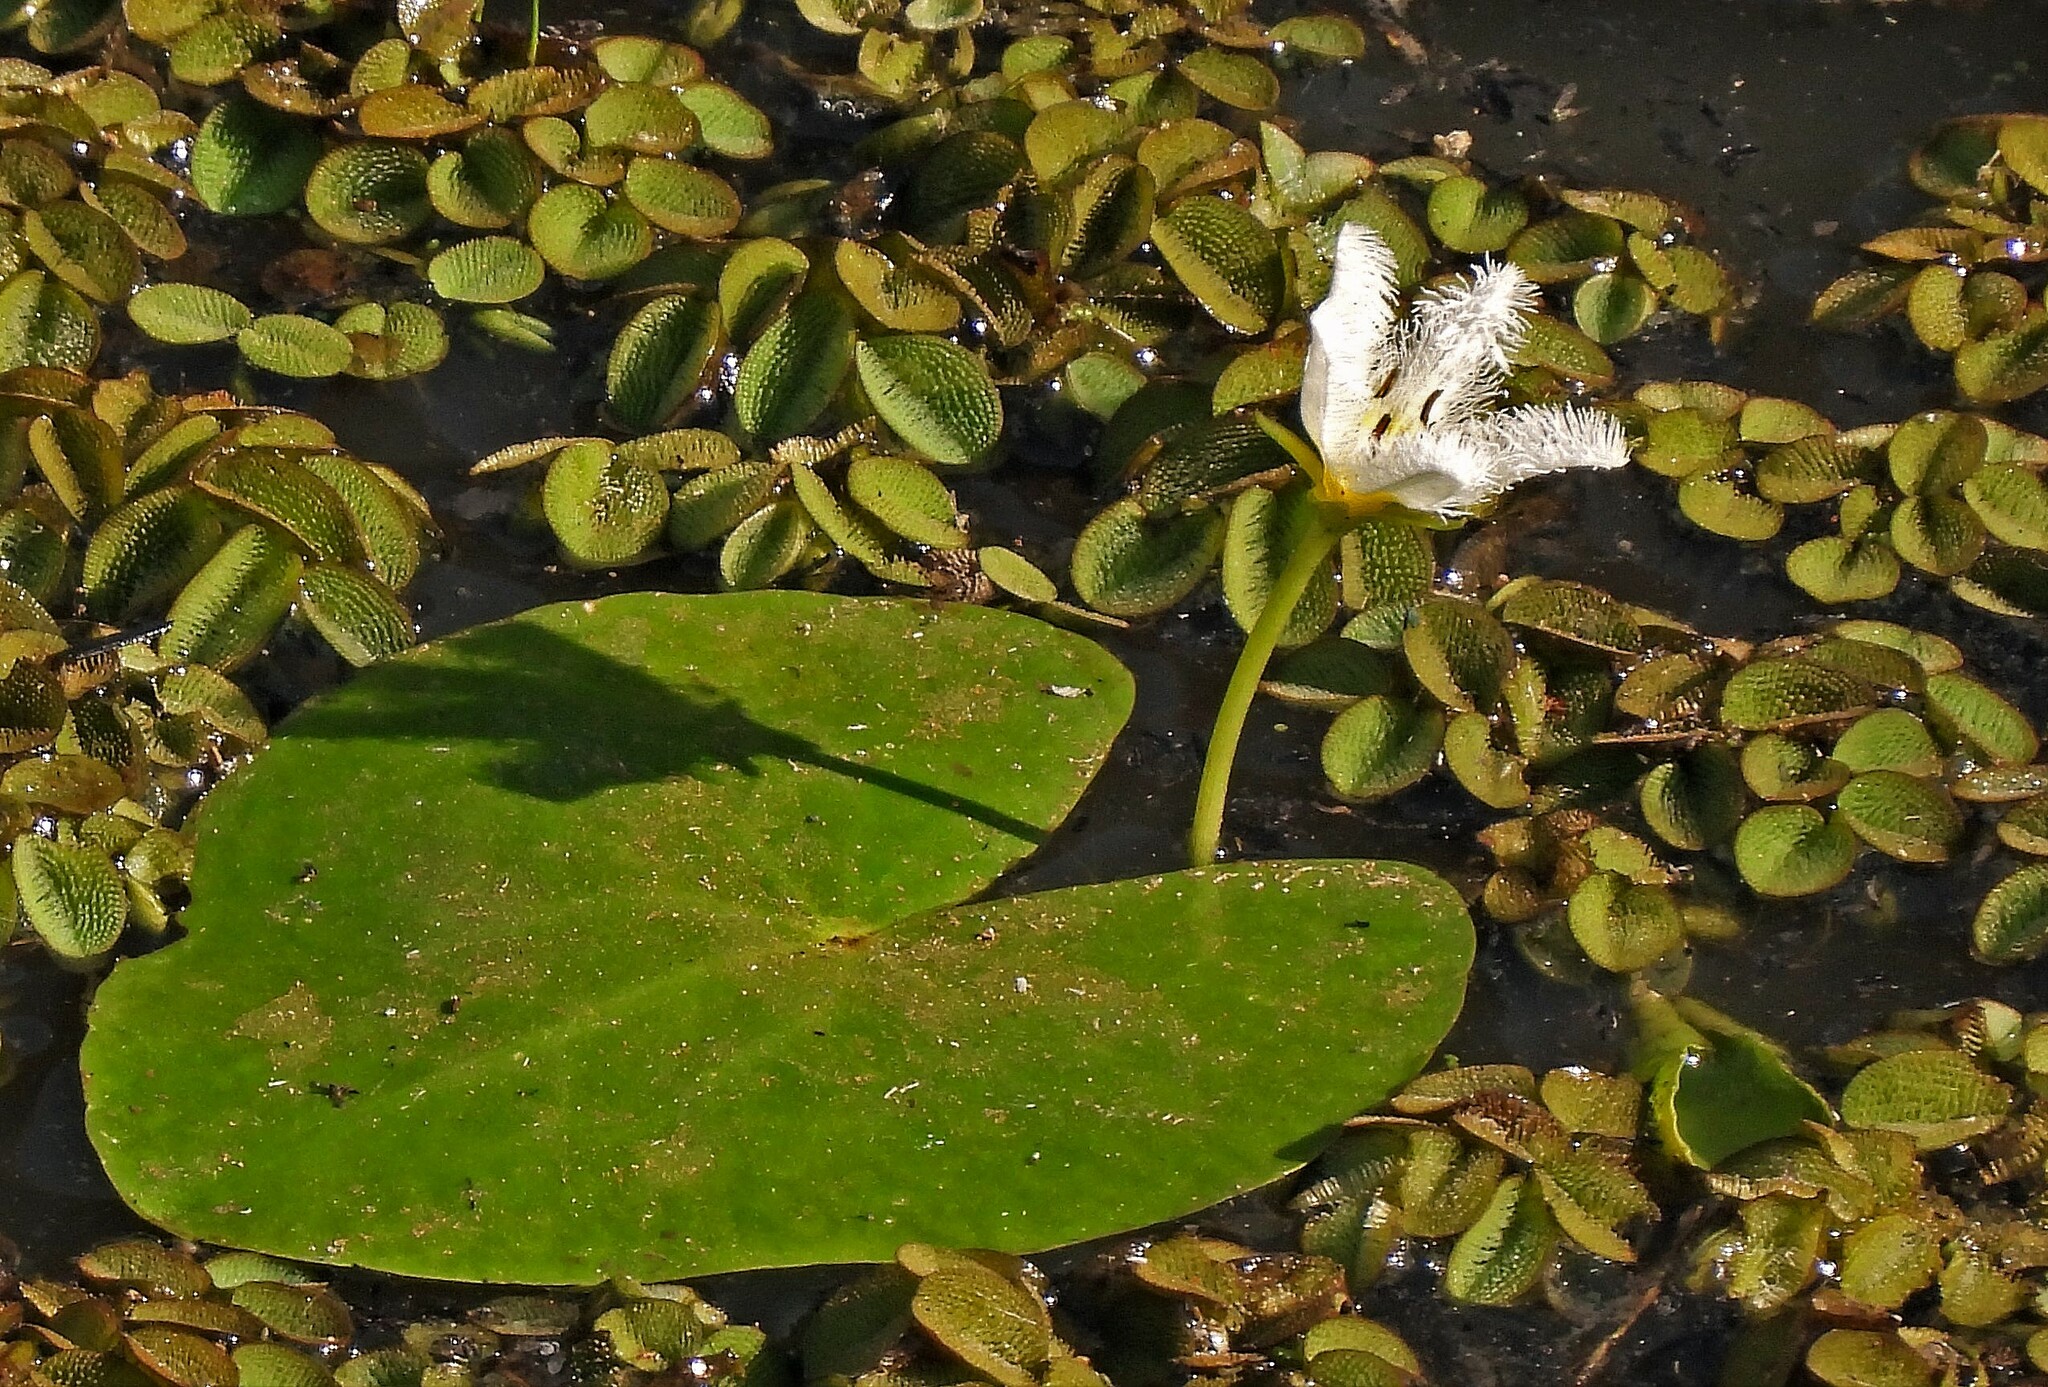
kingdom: Plantae
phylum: Tracheophyta
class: Magnoliopsida
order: Asterales
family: Menyanthaceae
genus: Nymphoides
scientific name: Nymphoides humboldtiana
